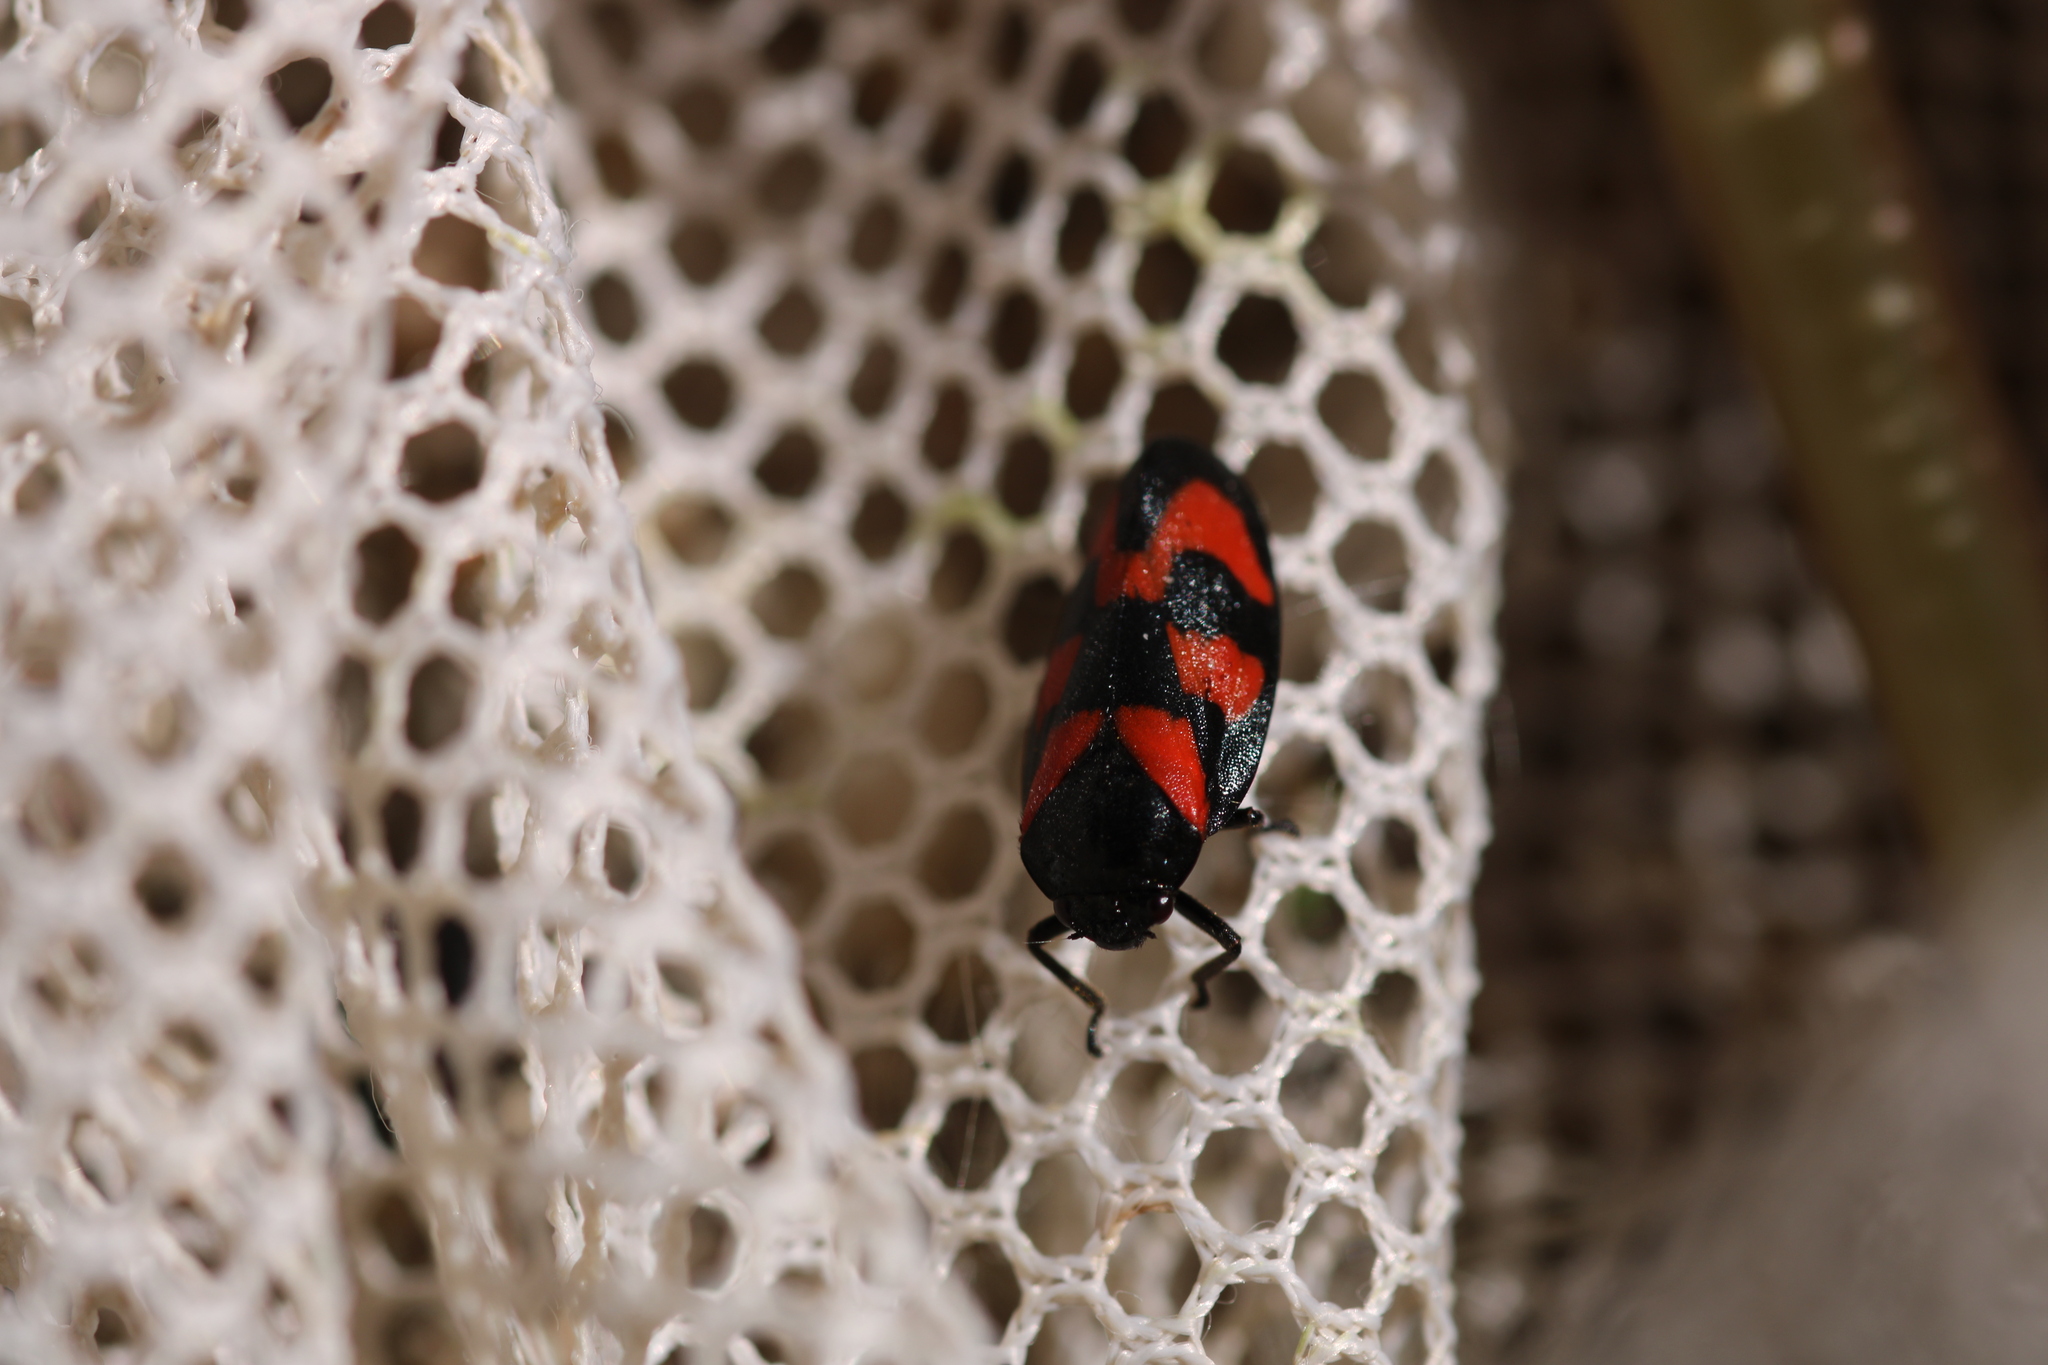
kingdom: Animalia
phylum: Arthropoda
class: Insecta
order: Hemiptera
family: Cercopidae
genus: Cercopis
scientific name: Cercopis vulnerata
